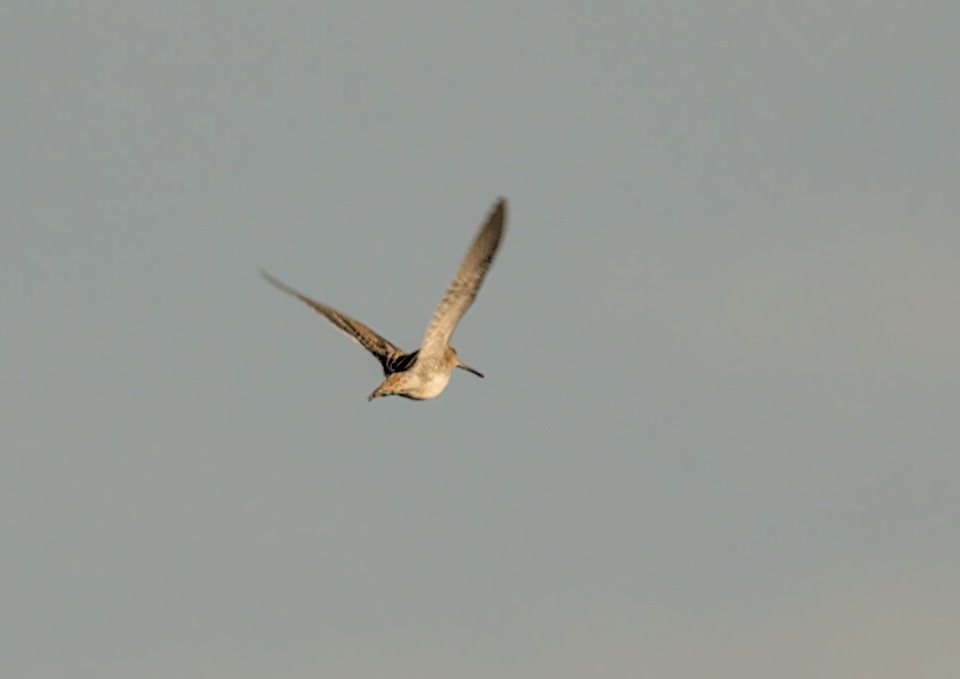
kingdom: Animalia
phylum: Chordata
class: Aves
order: Charadriiformes
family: Scolopacidae
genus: Gallinago
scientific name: Gallinago gallinago
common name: Common snipe
